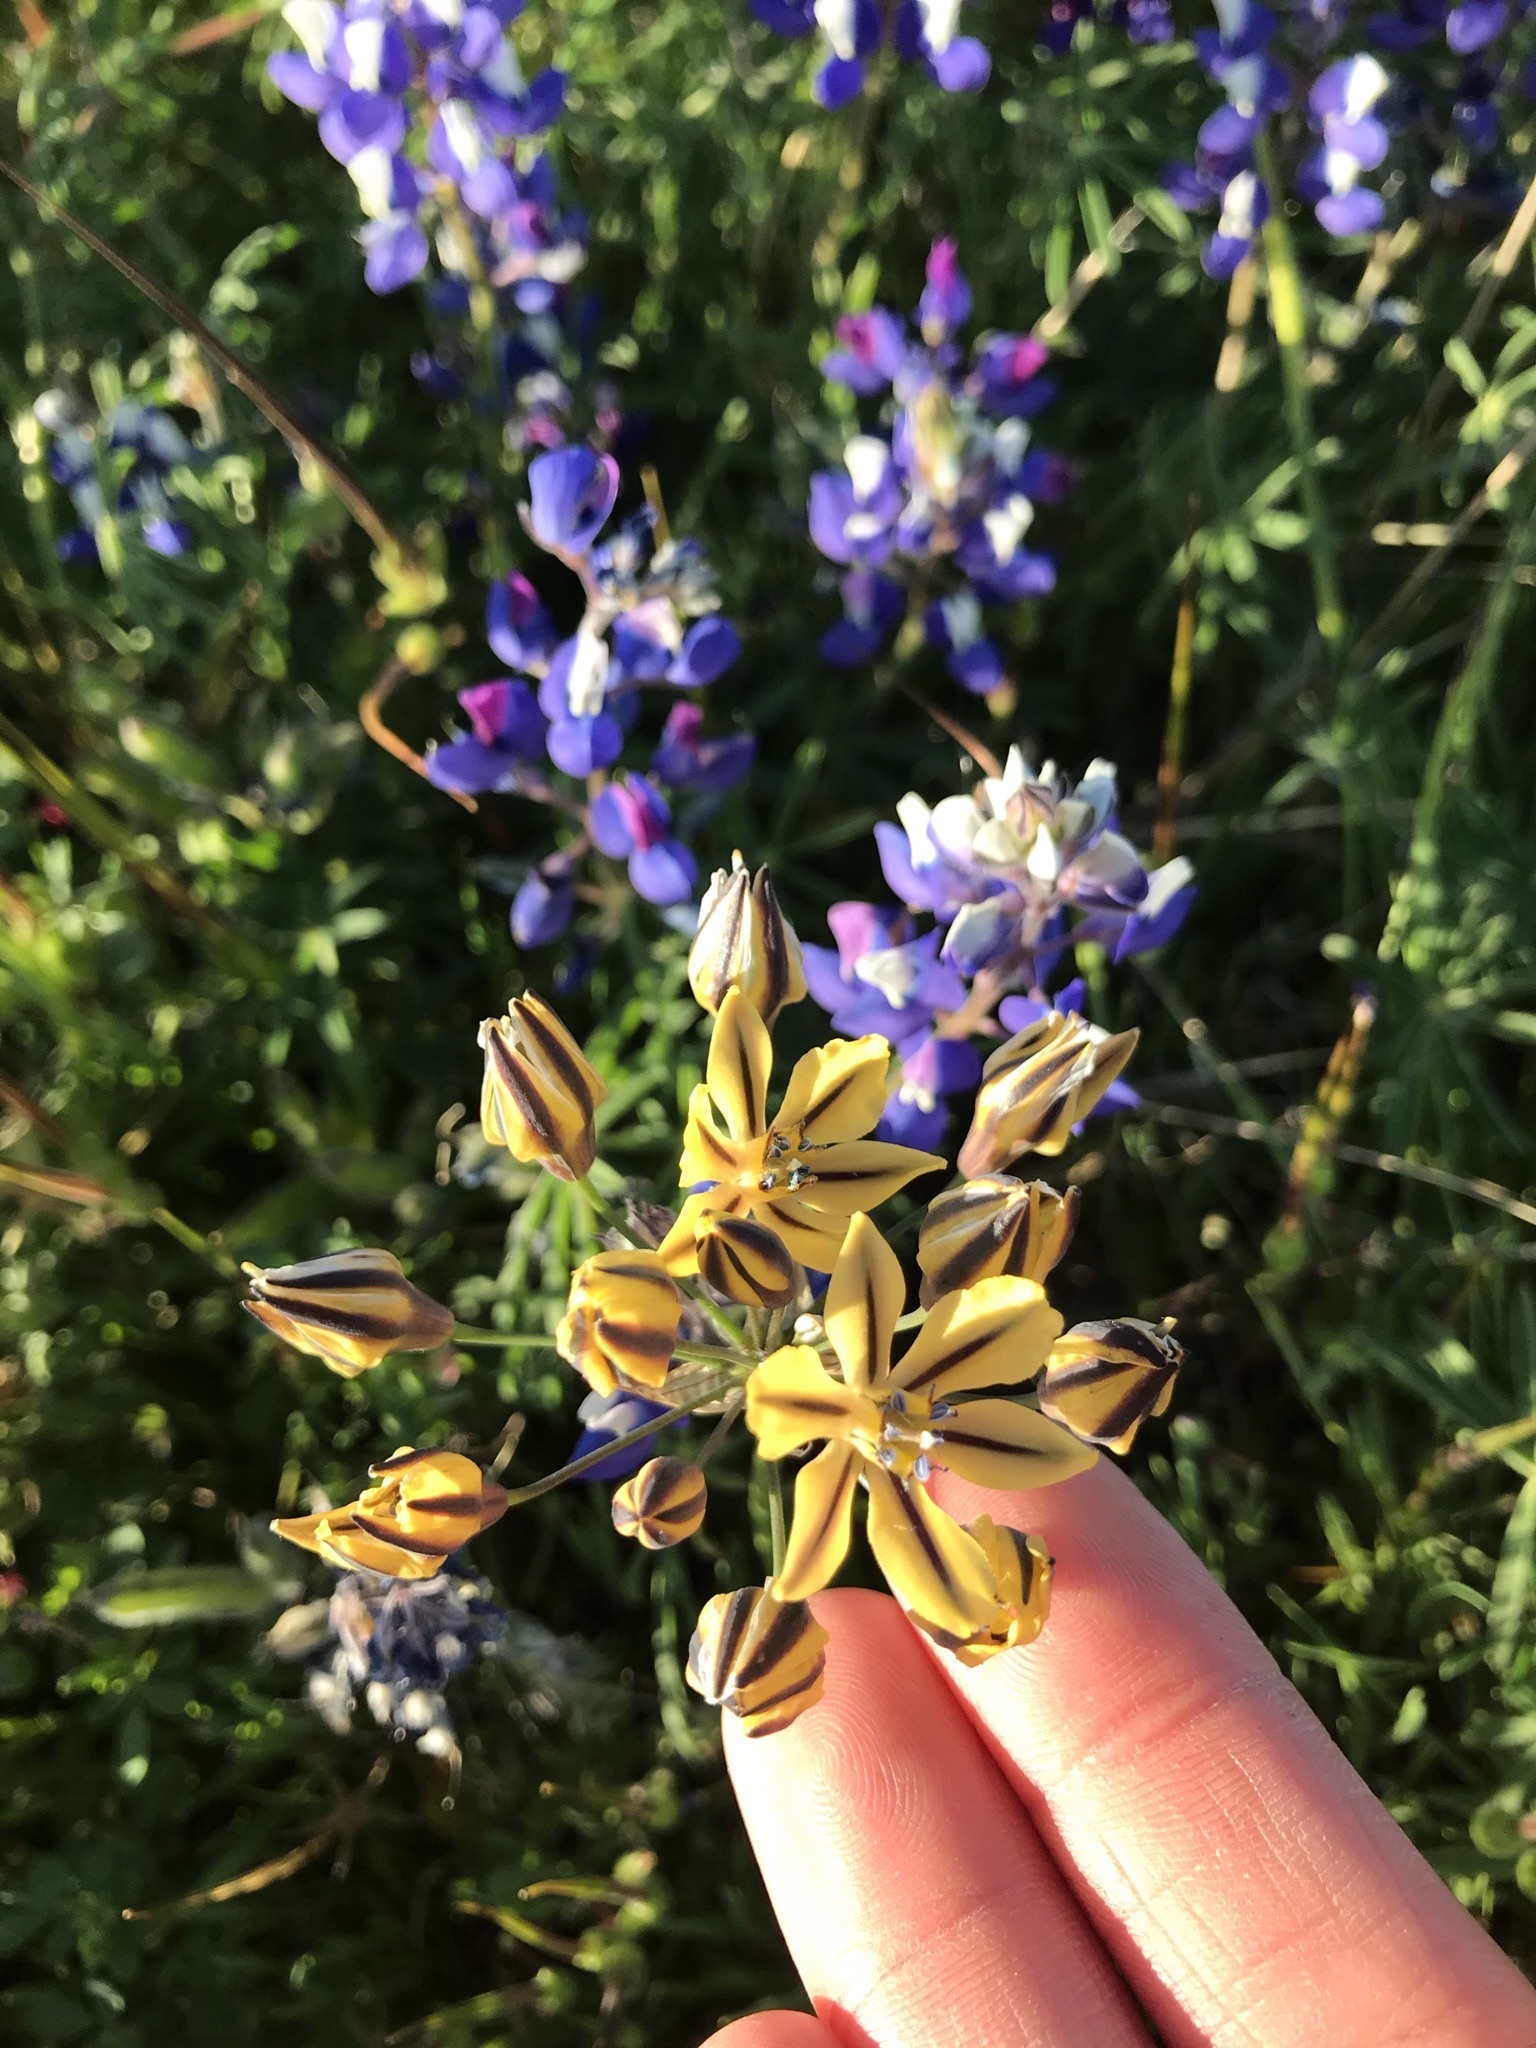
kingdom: Plantae
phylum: Tracheophyta
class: Liliopsida
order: Asparagales
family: Asparagaceae
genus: Triteleia
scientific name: Triteleia ixioides
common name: Yellow-brodiaea
